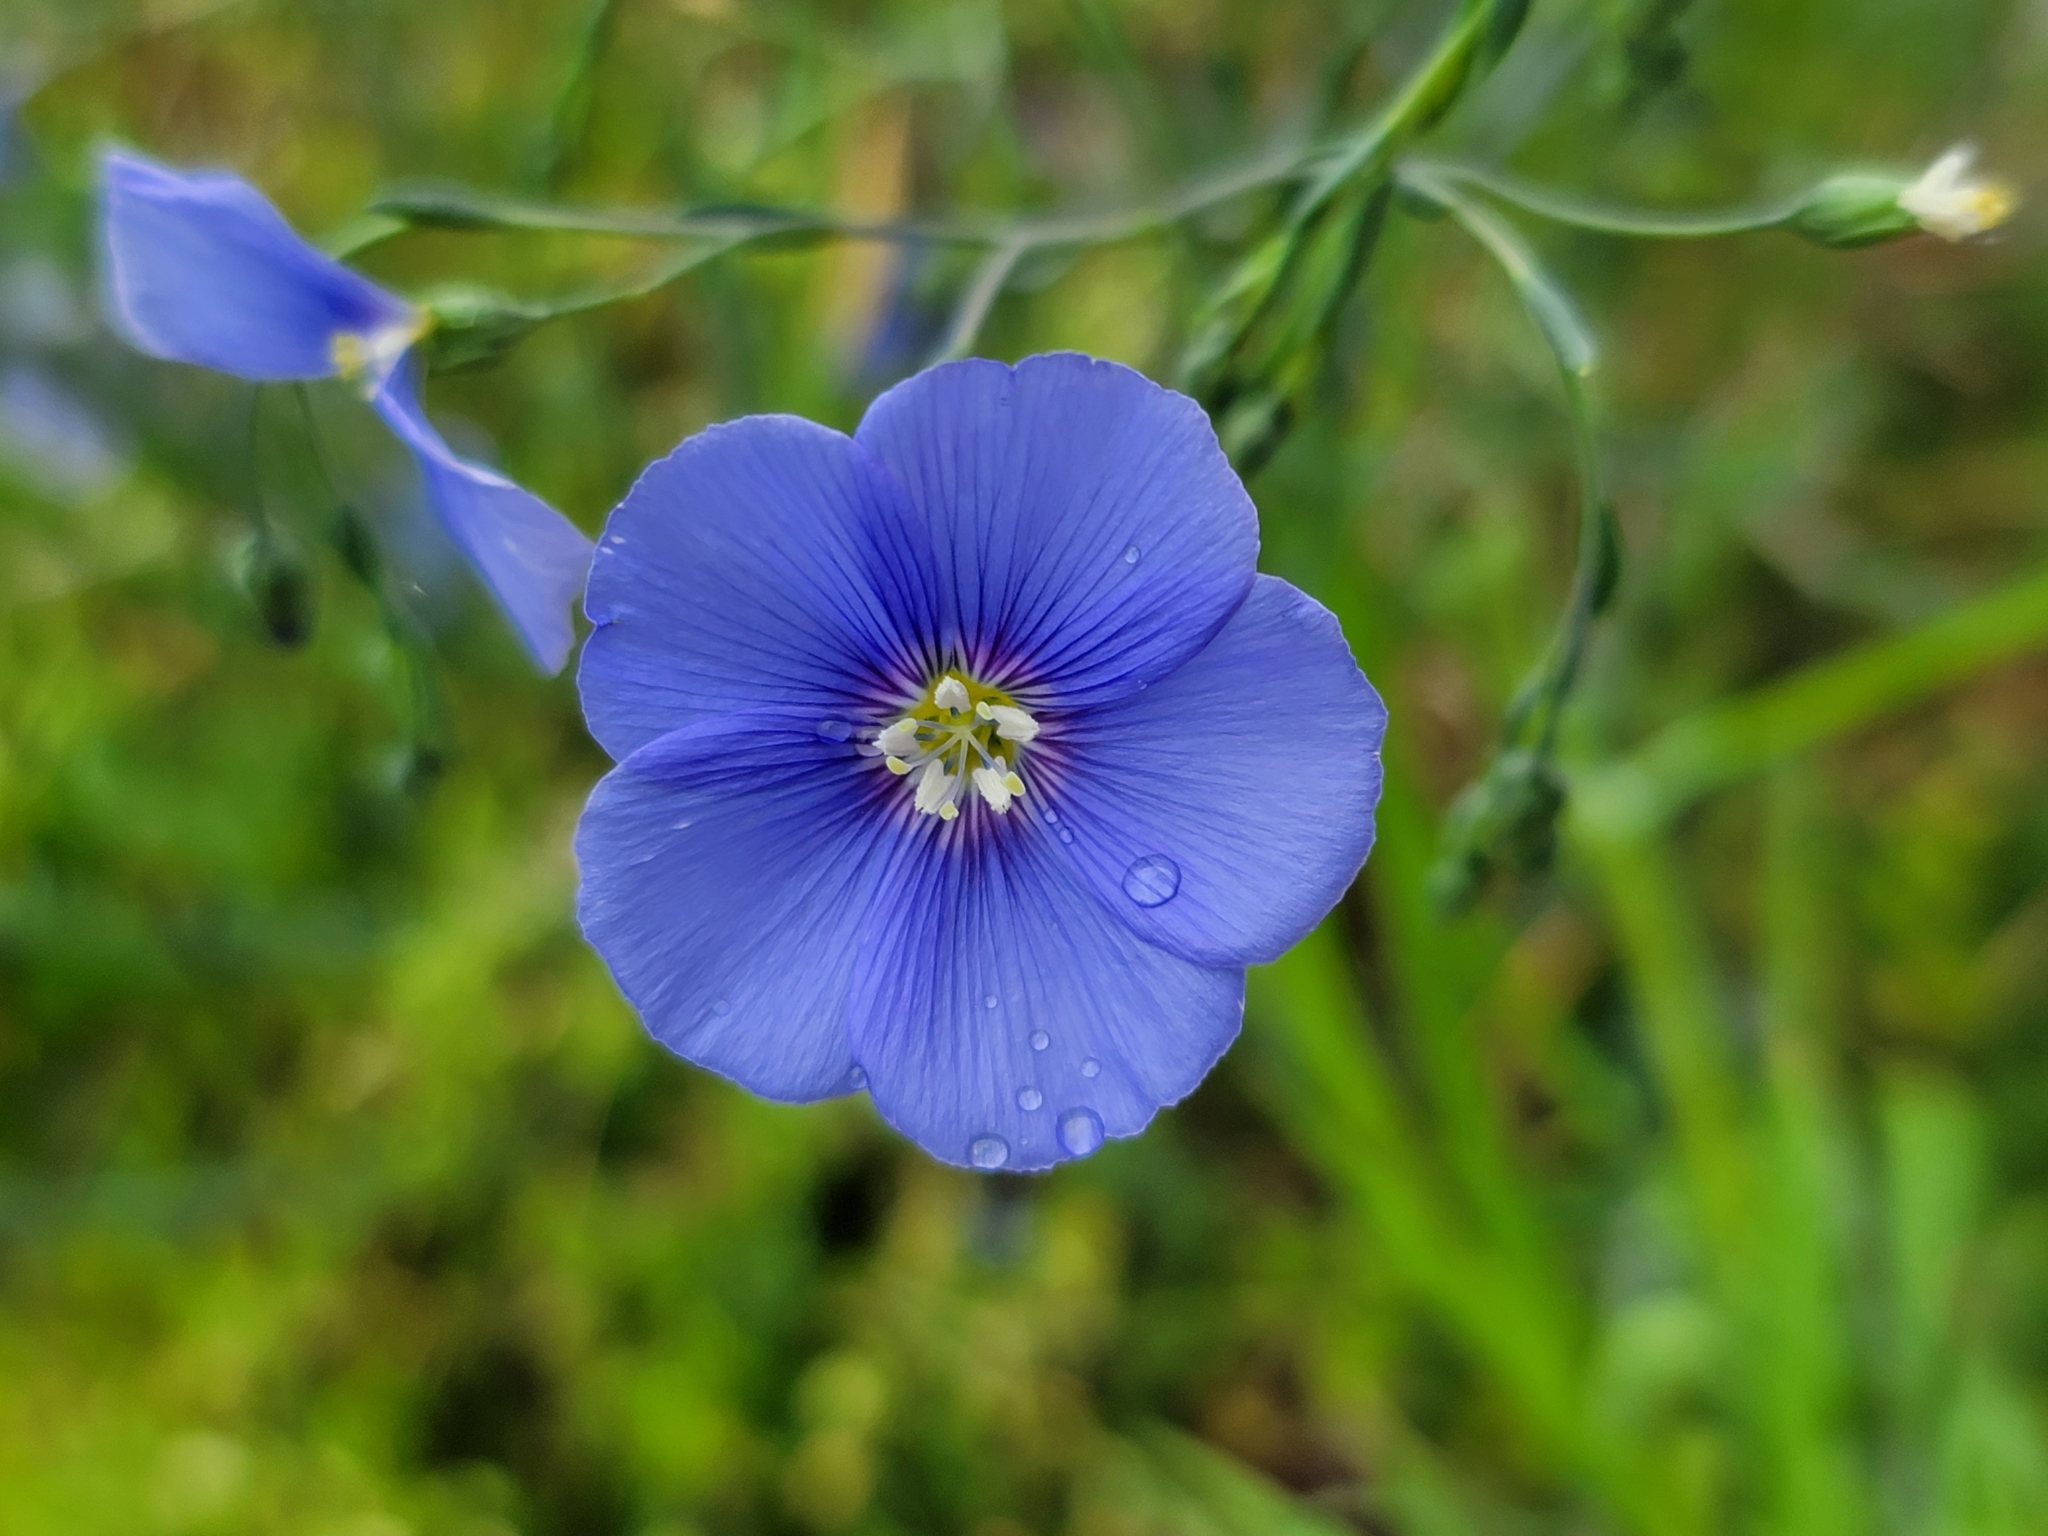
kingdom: Plantae
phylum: Tracheophyta
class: Magnoliopsida
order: Malpighiales
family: Linaceae
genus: Linum
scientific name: Linum austriacum
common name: Austrian flax
